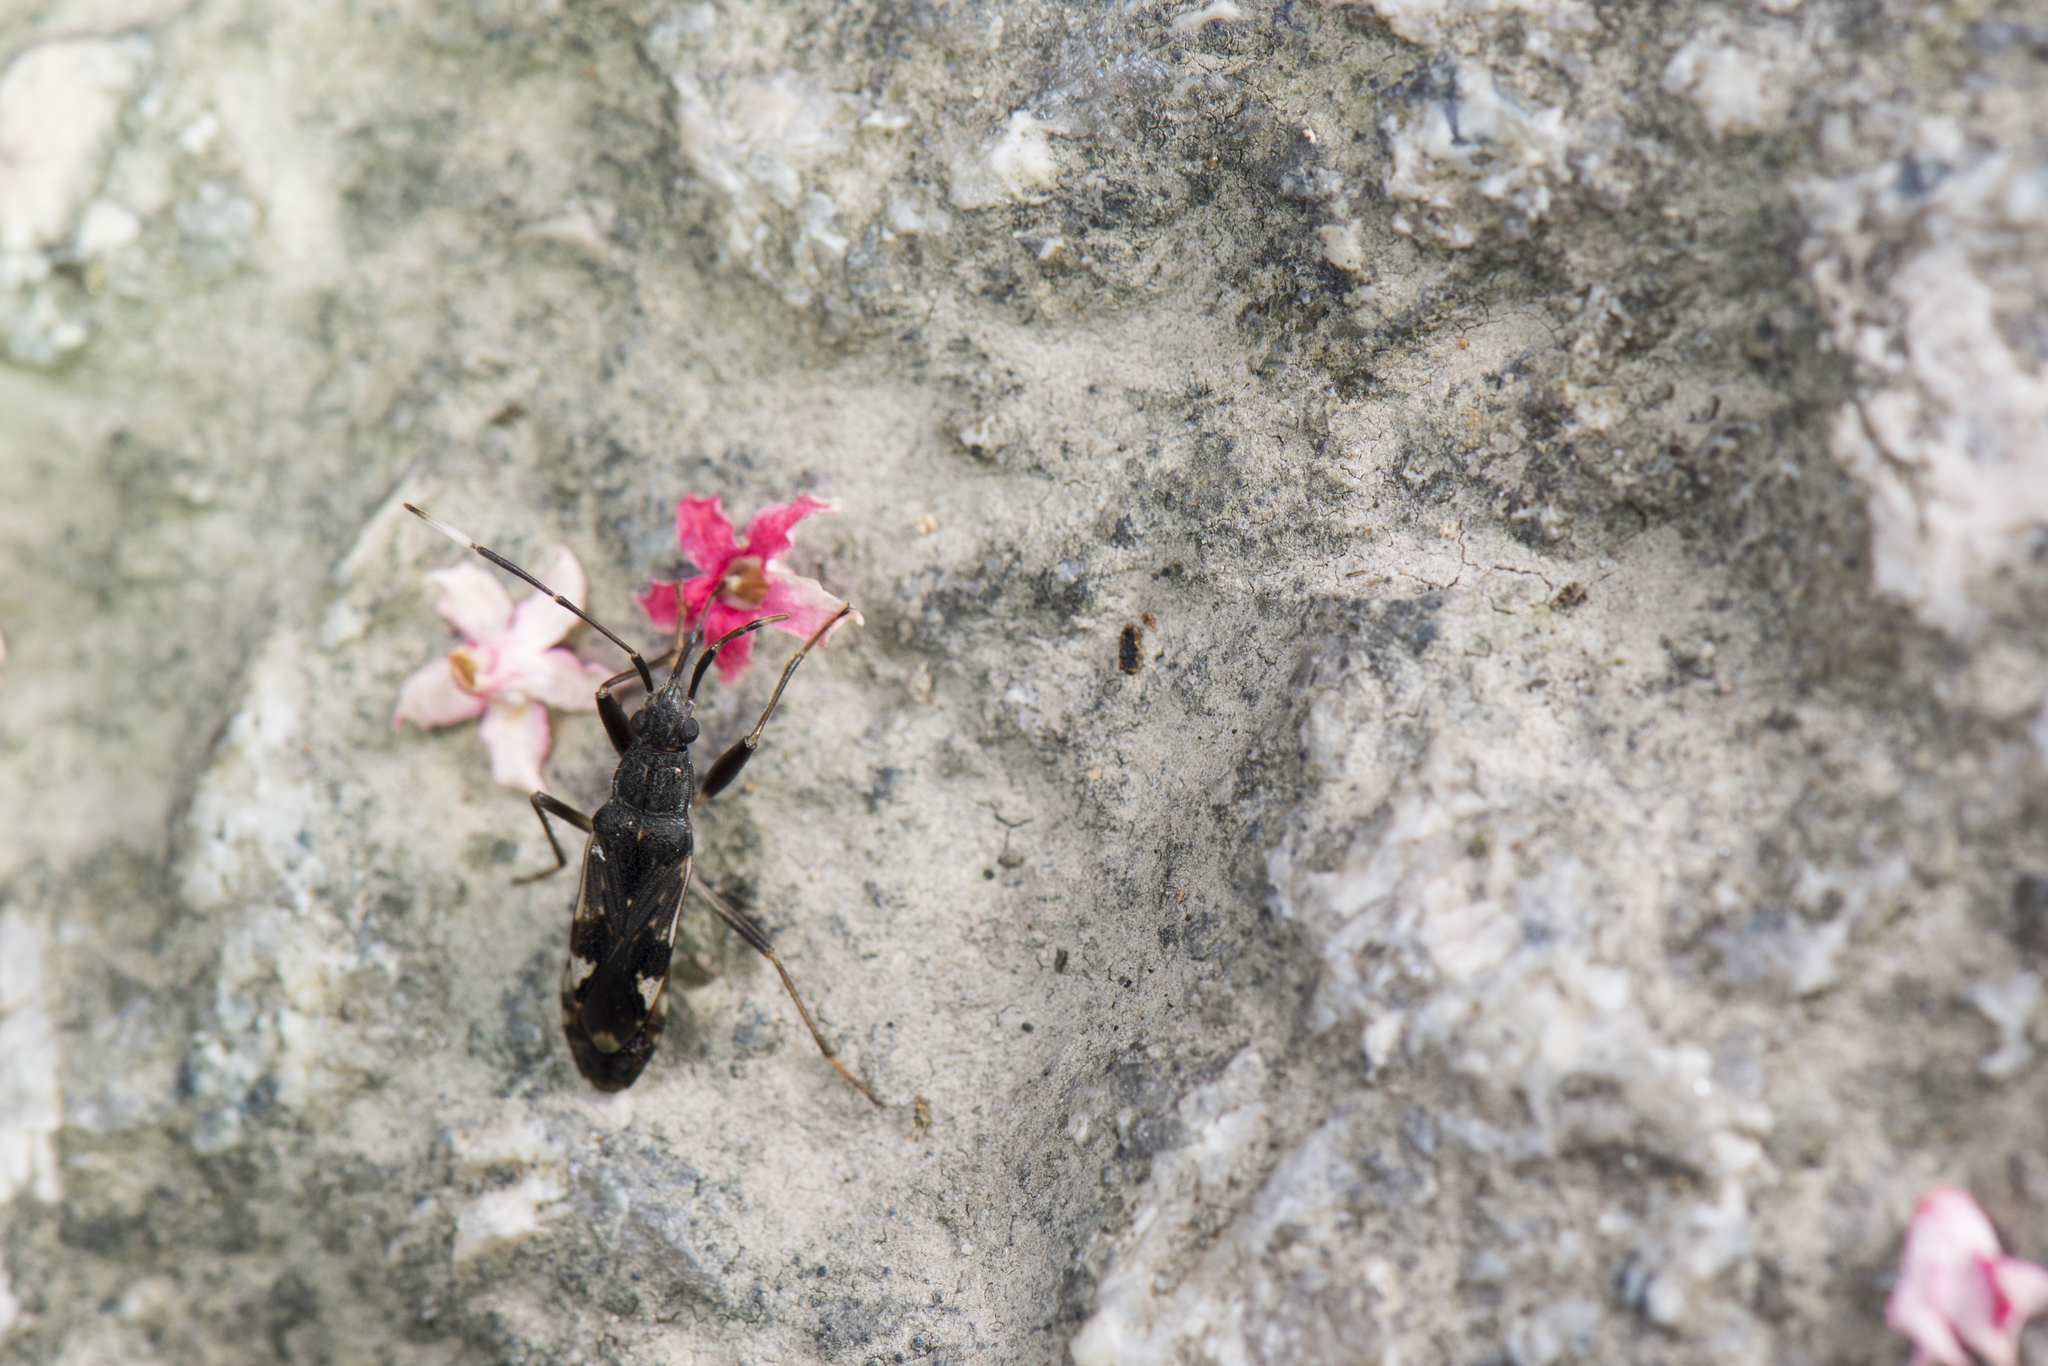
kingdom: Animalia
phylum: Arthropoda
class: Insecta
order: Hemiptera
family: Rhyparochromidae
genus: Metochus
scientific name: Metochus abbreviatus
